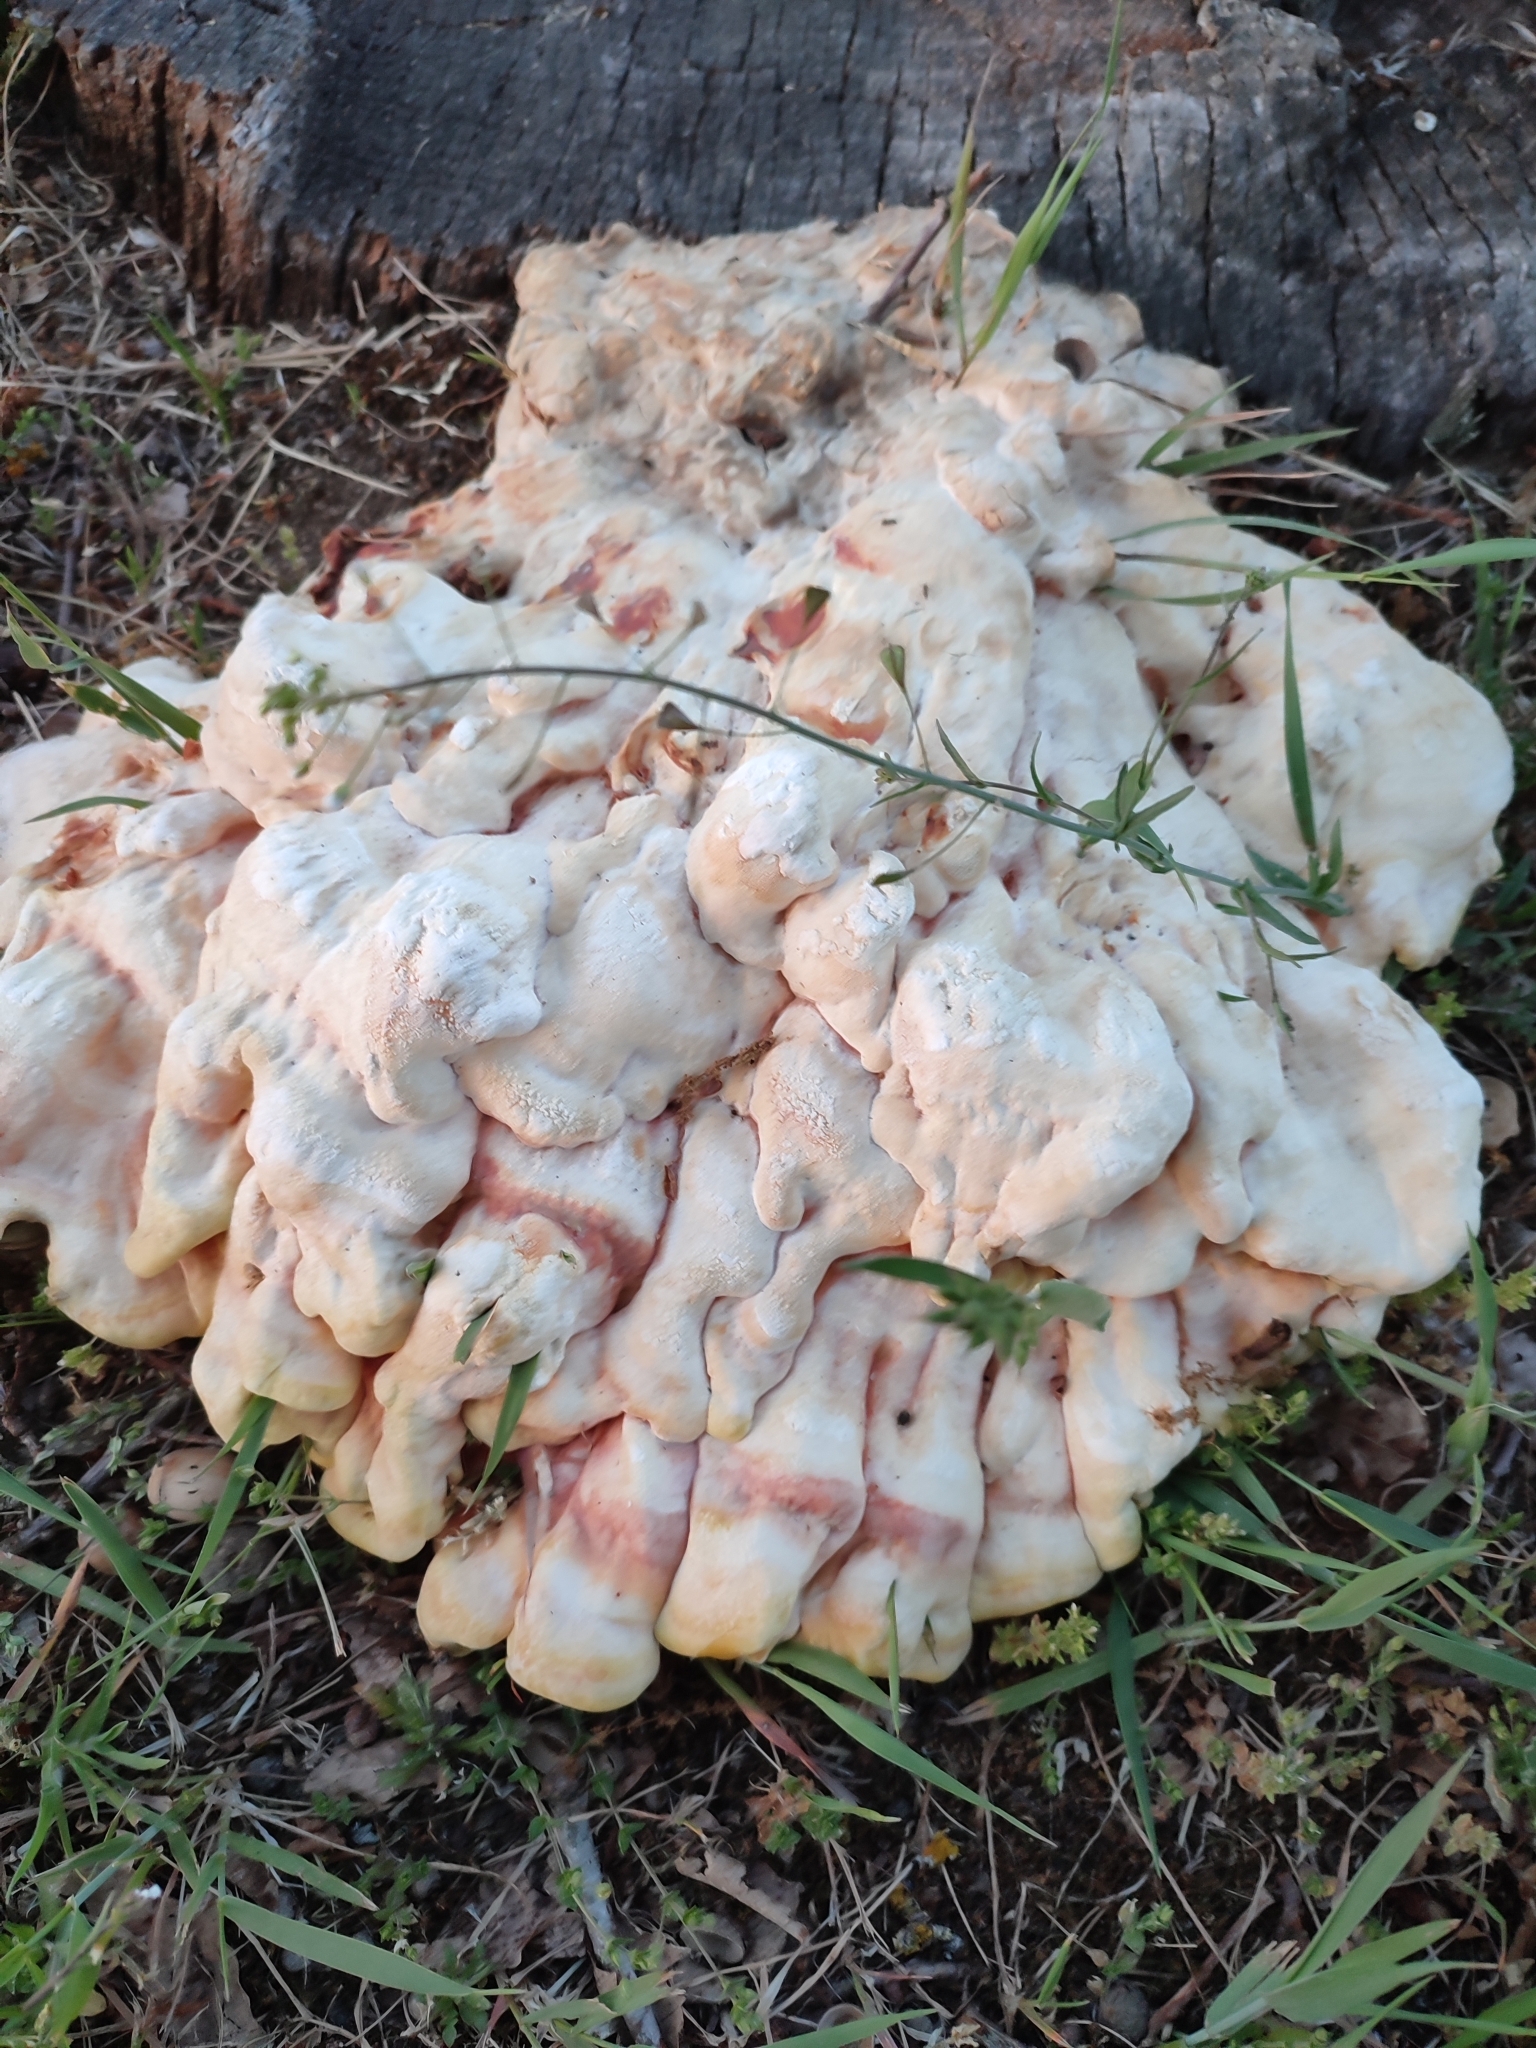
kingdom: Fungi
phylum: Basidiomycota
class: Agaricomycetes
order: Polyporales
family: Laetiporaceae
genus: Laetiporus
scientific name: Laetiporus sulphureus
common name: Chicken of the woods
